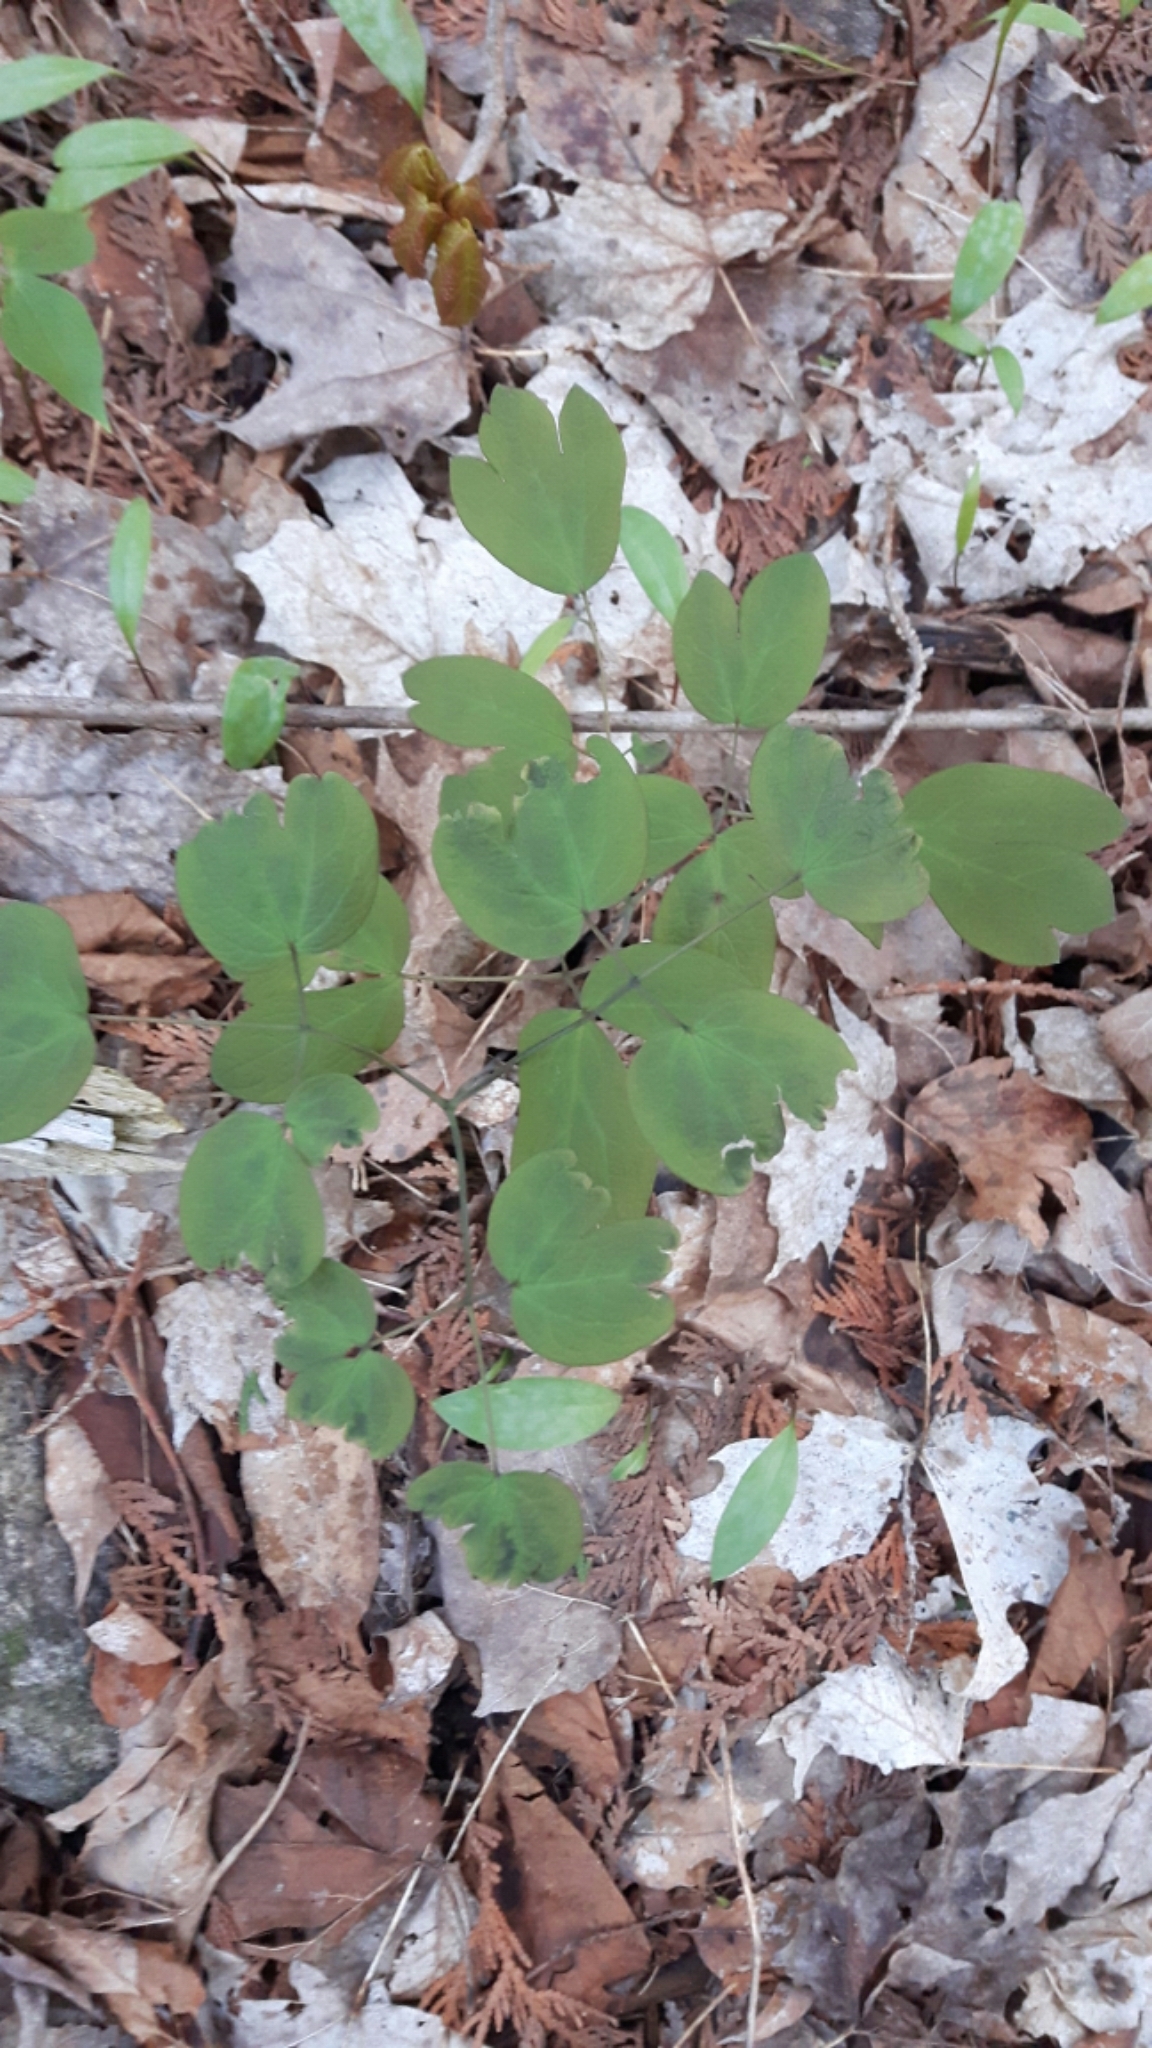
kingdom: Plantae
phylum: Tracheophyta
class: Magnoliopsida
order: Ranunculales
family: Berberidaceae
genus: Caulophyllum
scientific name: Caulophyllum giganteum
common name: Blue cohosh
